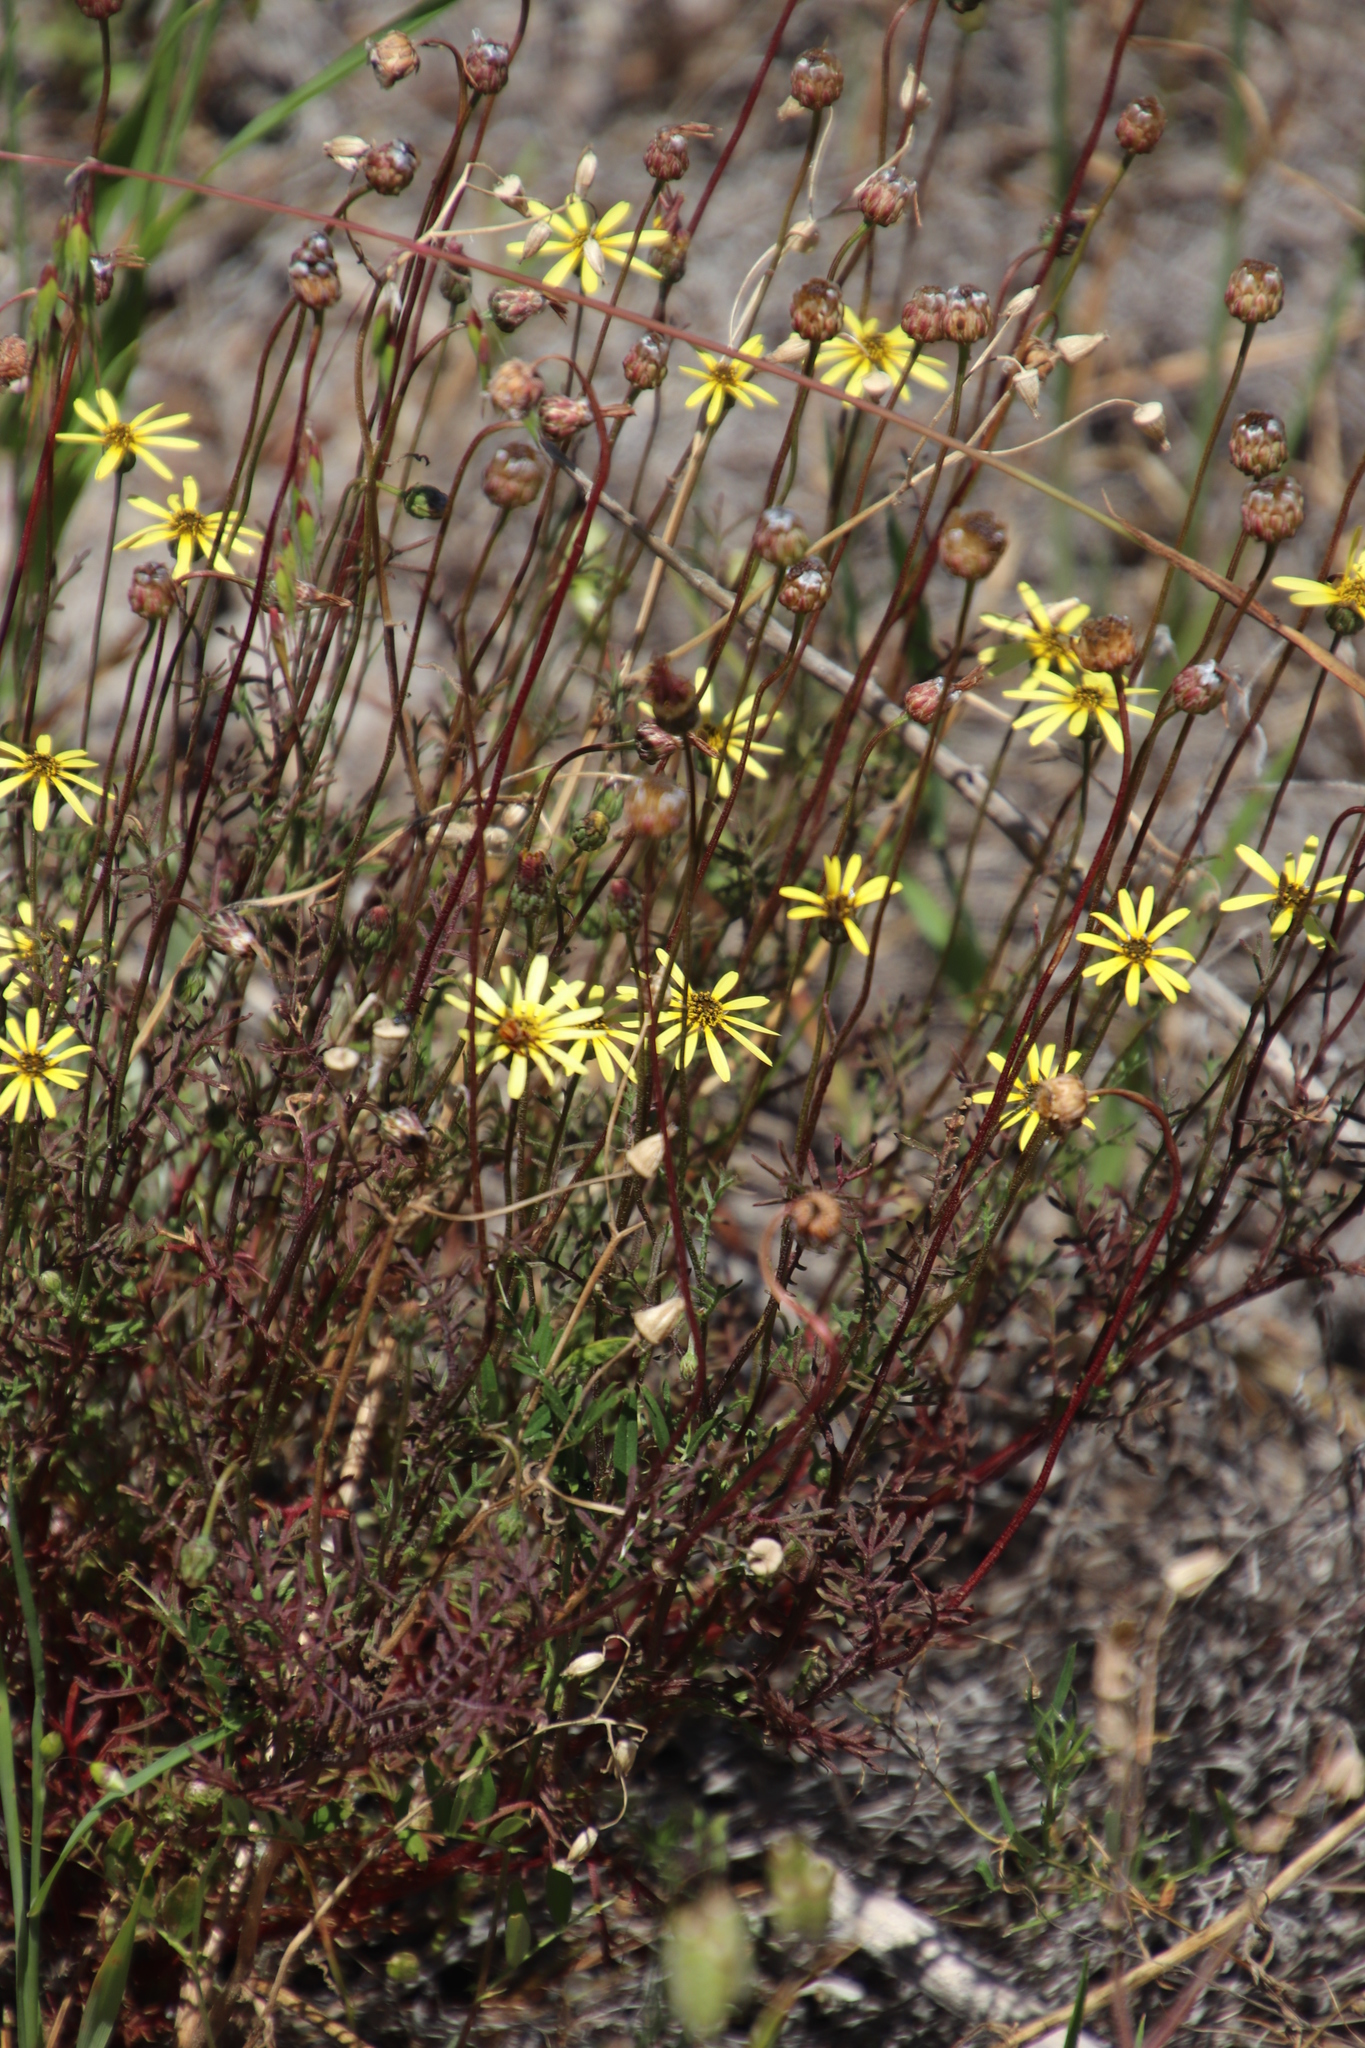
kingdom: Plantae
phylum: Tracheophyta
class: Magnoliopsida
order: Asterales
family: Asteraceae
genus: Ursinia
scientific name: Ursinia anthemoides
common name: Ursinia
